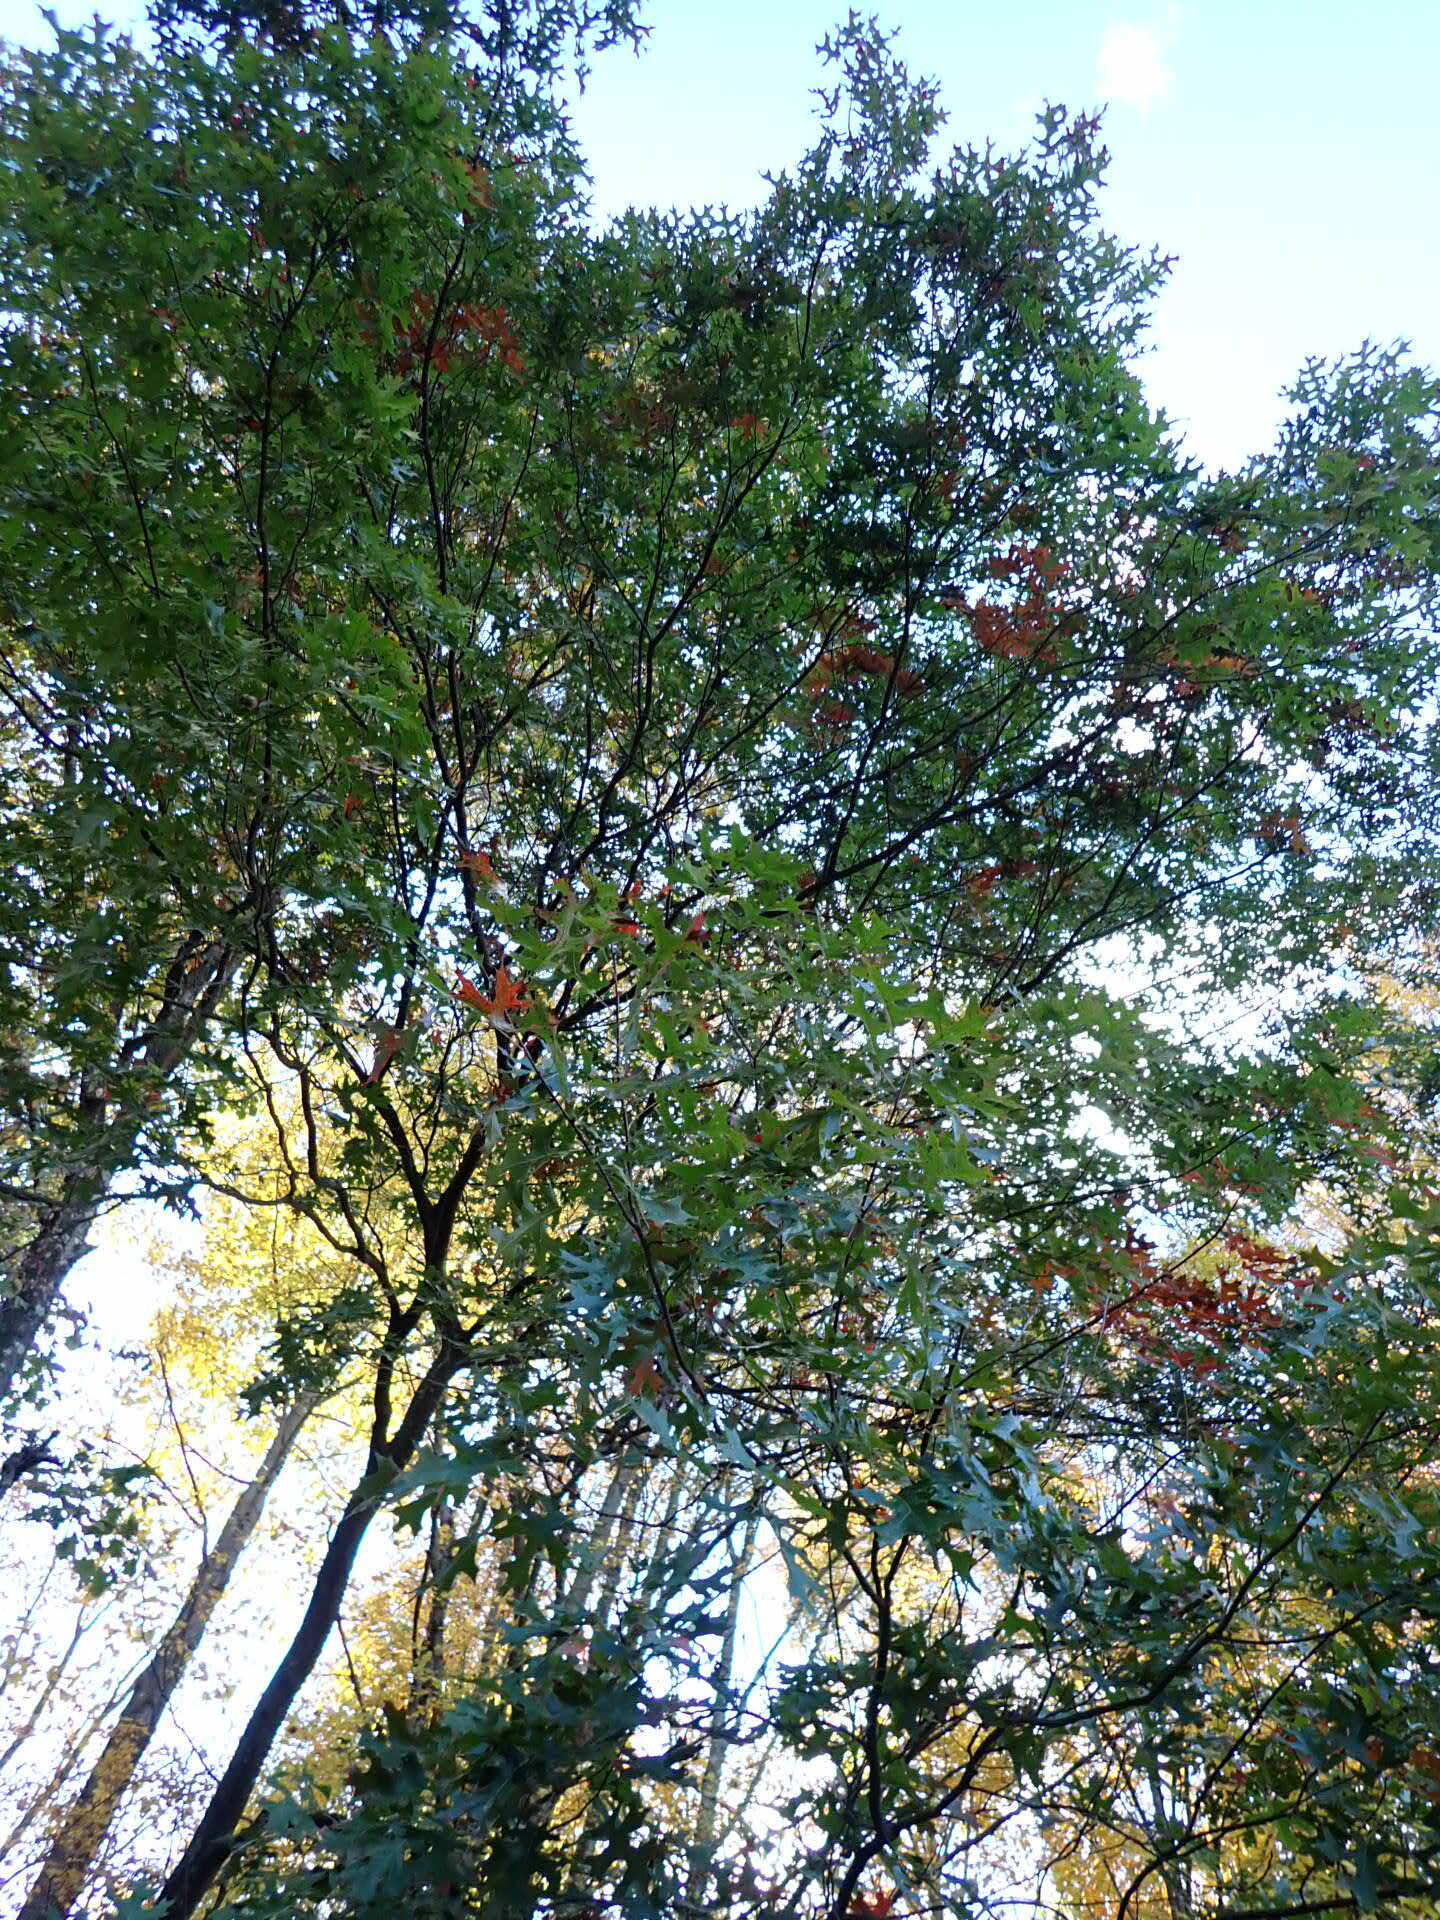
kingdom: Plantae
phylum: Tracheophyta
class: Magnoliopsida
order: Fagales
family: Fagaceae
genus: Quercus
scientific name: Quercus coccinea
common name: Scarlet oak
